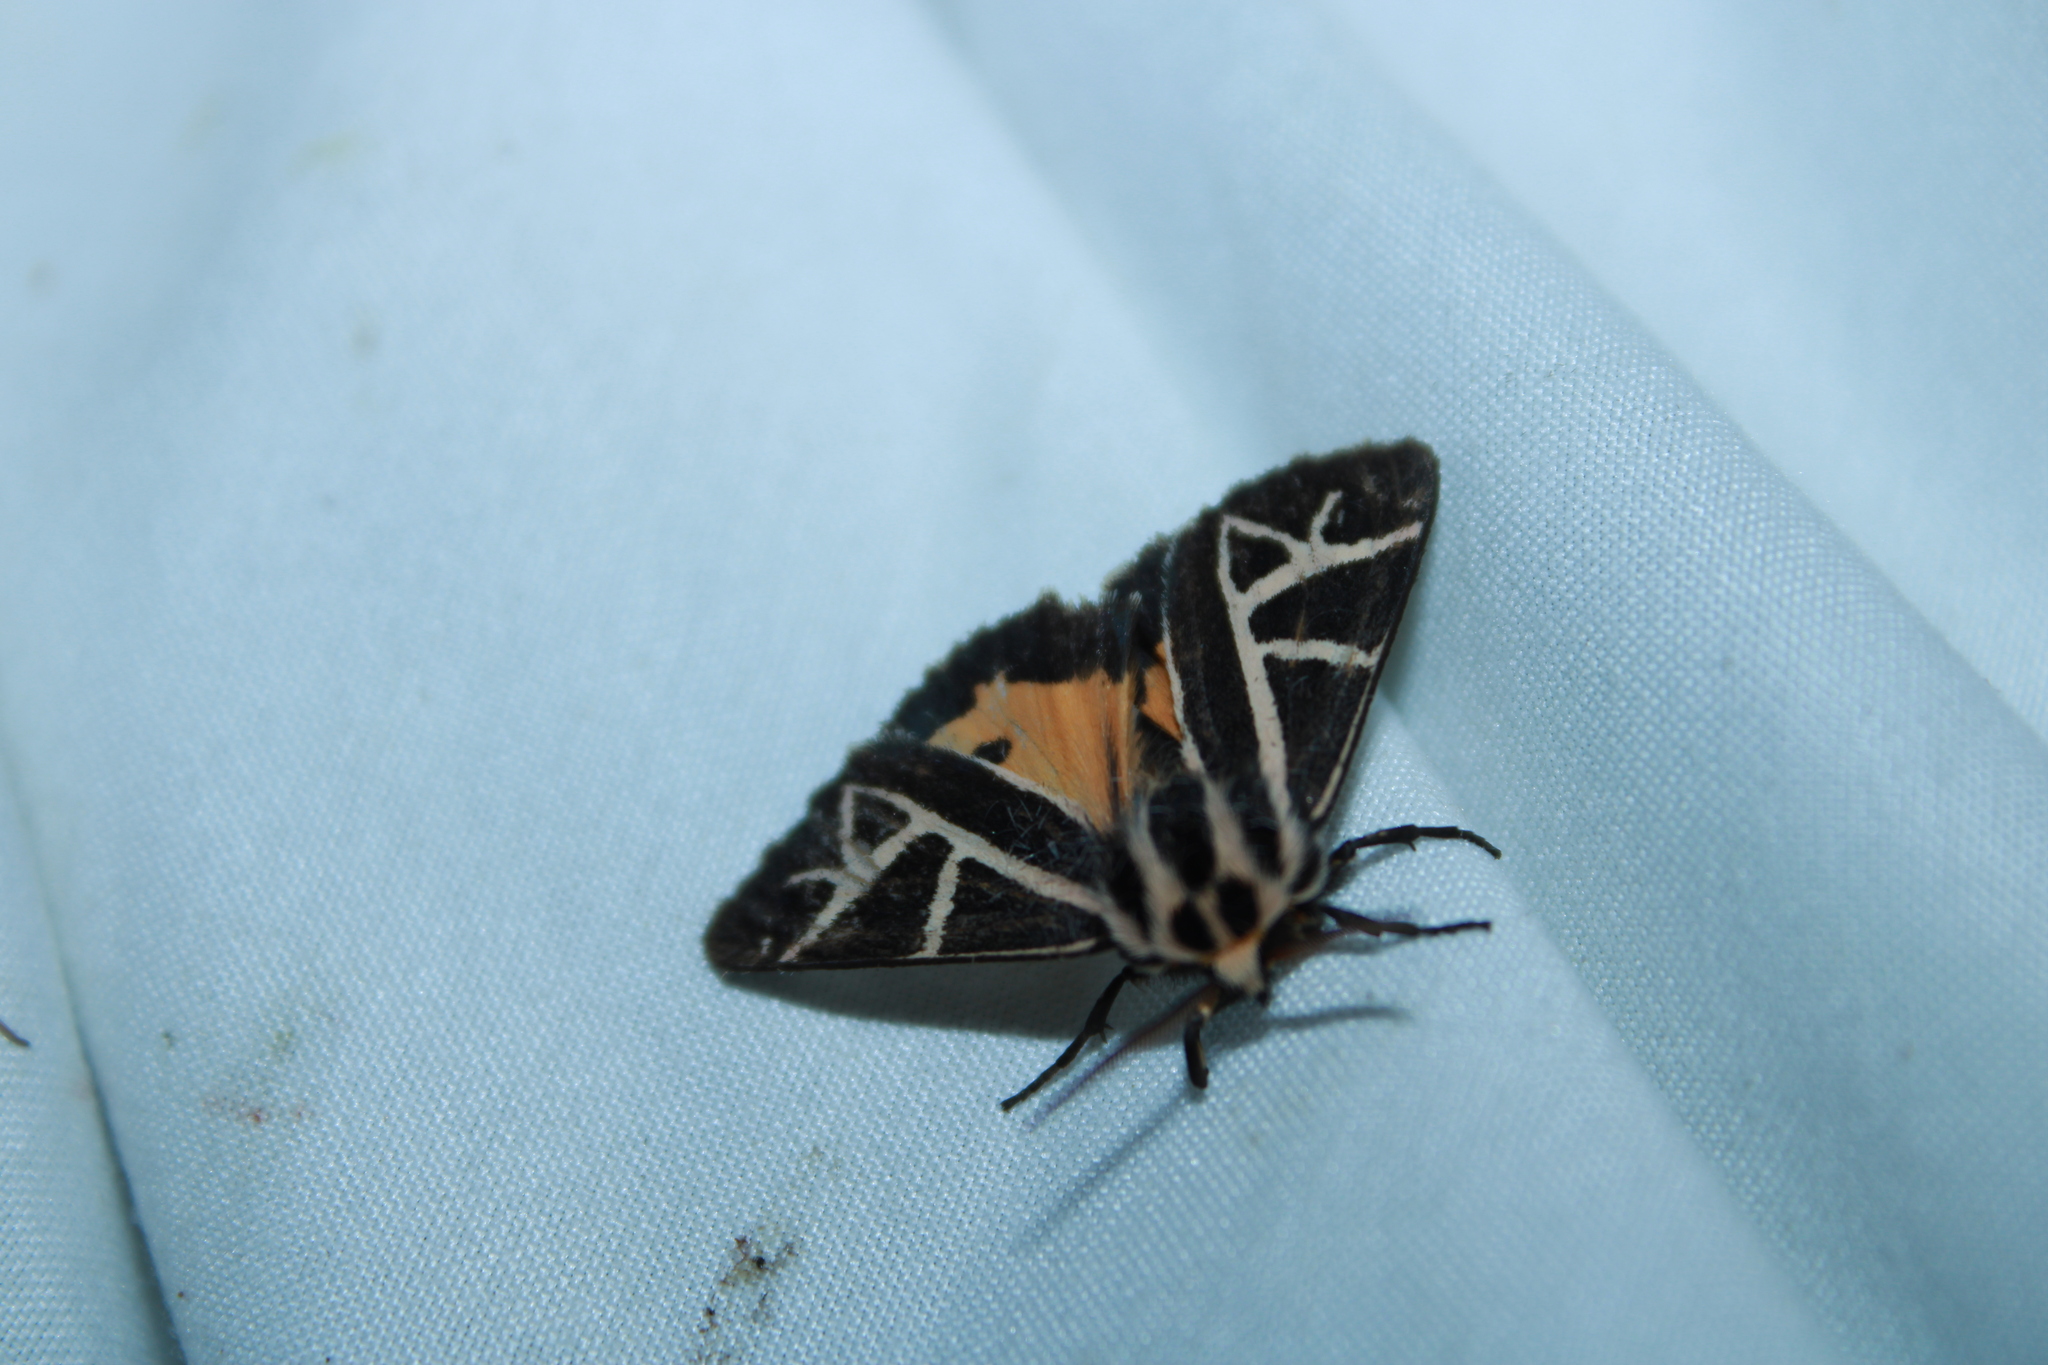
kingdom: Animalia
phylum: Arthropoda
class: Insecta
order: Lepidoptera
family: Erebidae
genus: Apantesis
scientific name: Apantesis
